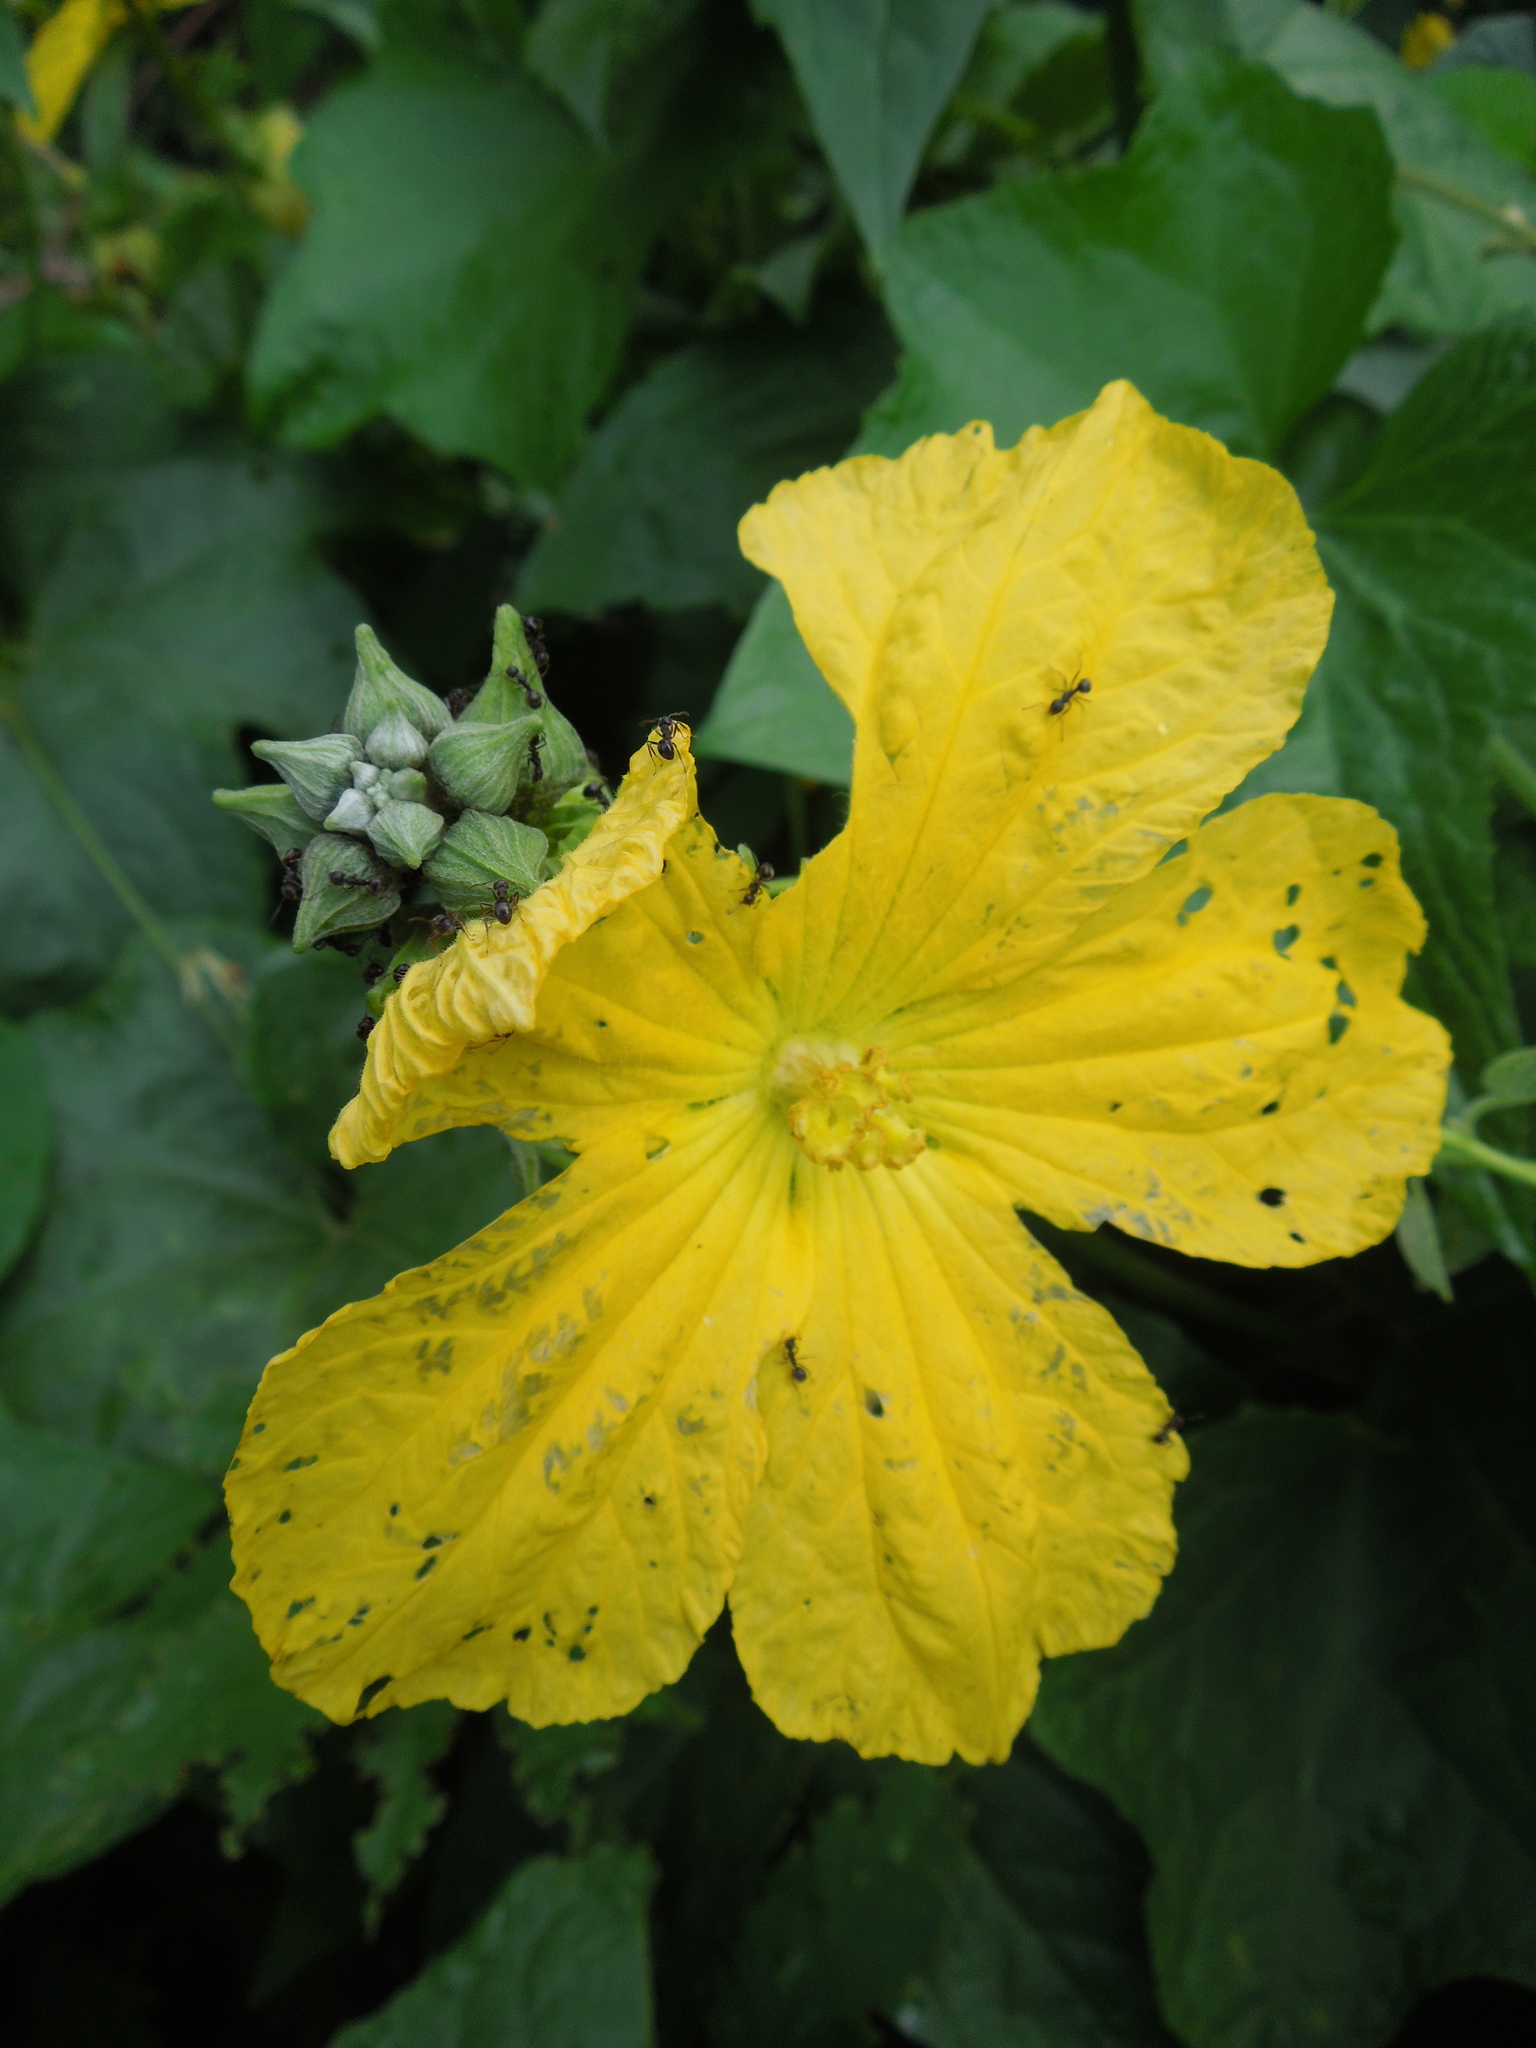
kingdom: Plantae
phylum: Tracheophyta
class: Magnoliopsida
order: Cucurbitales
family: Cucurbitaceae
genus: Luffa
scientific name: Luffa aegyptiaca
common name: Sponge gourd
